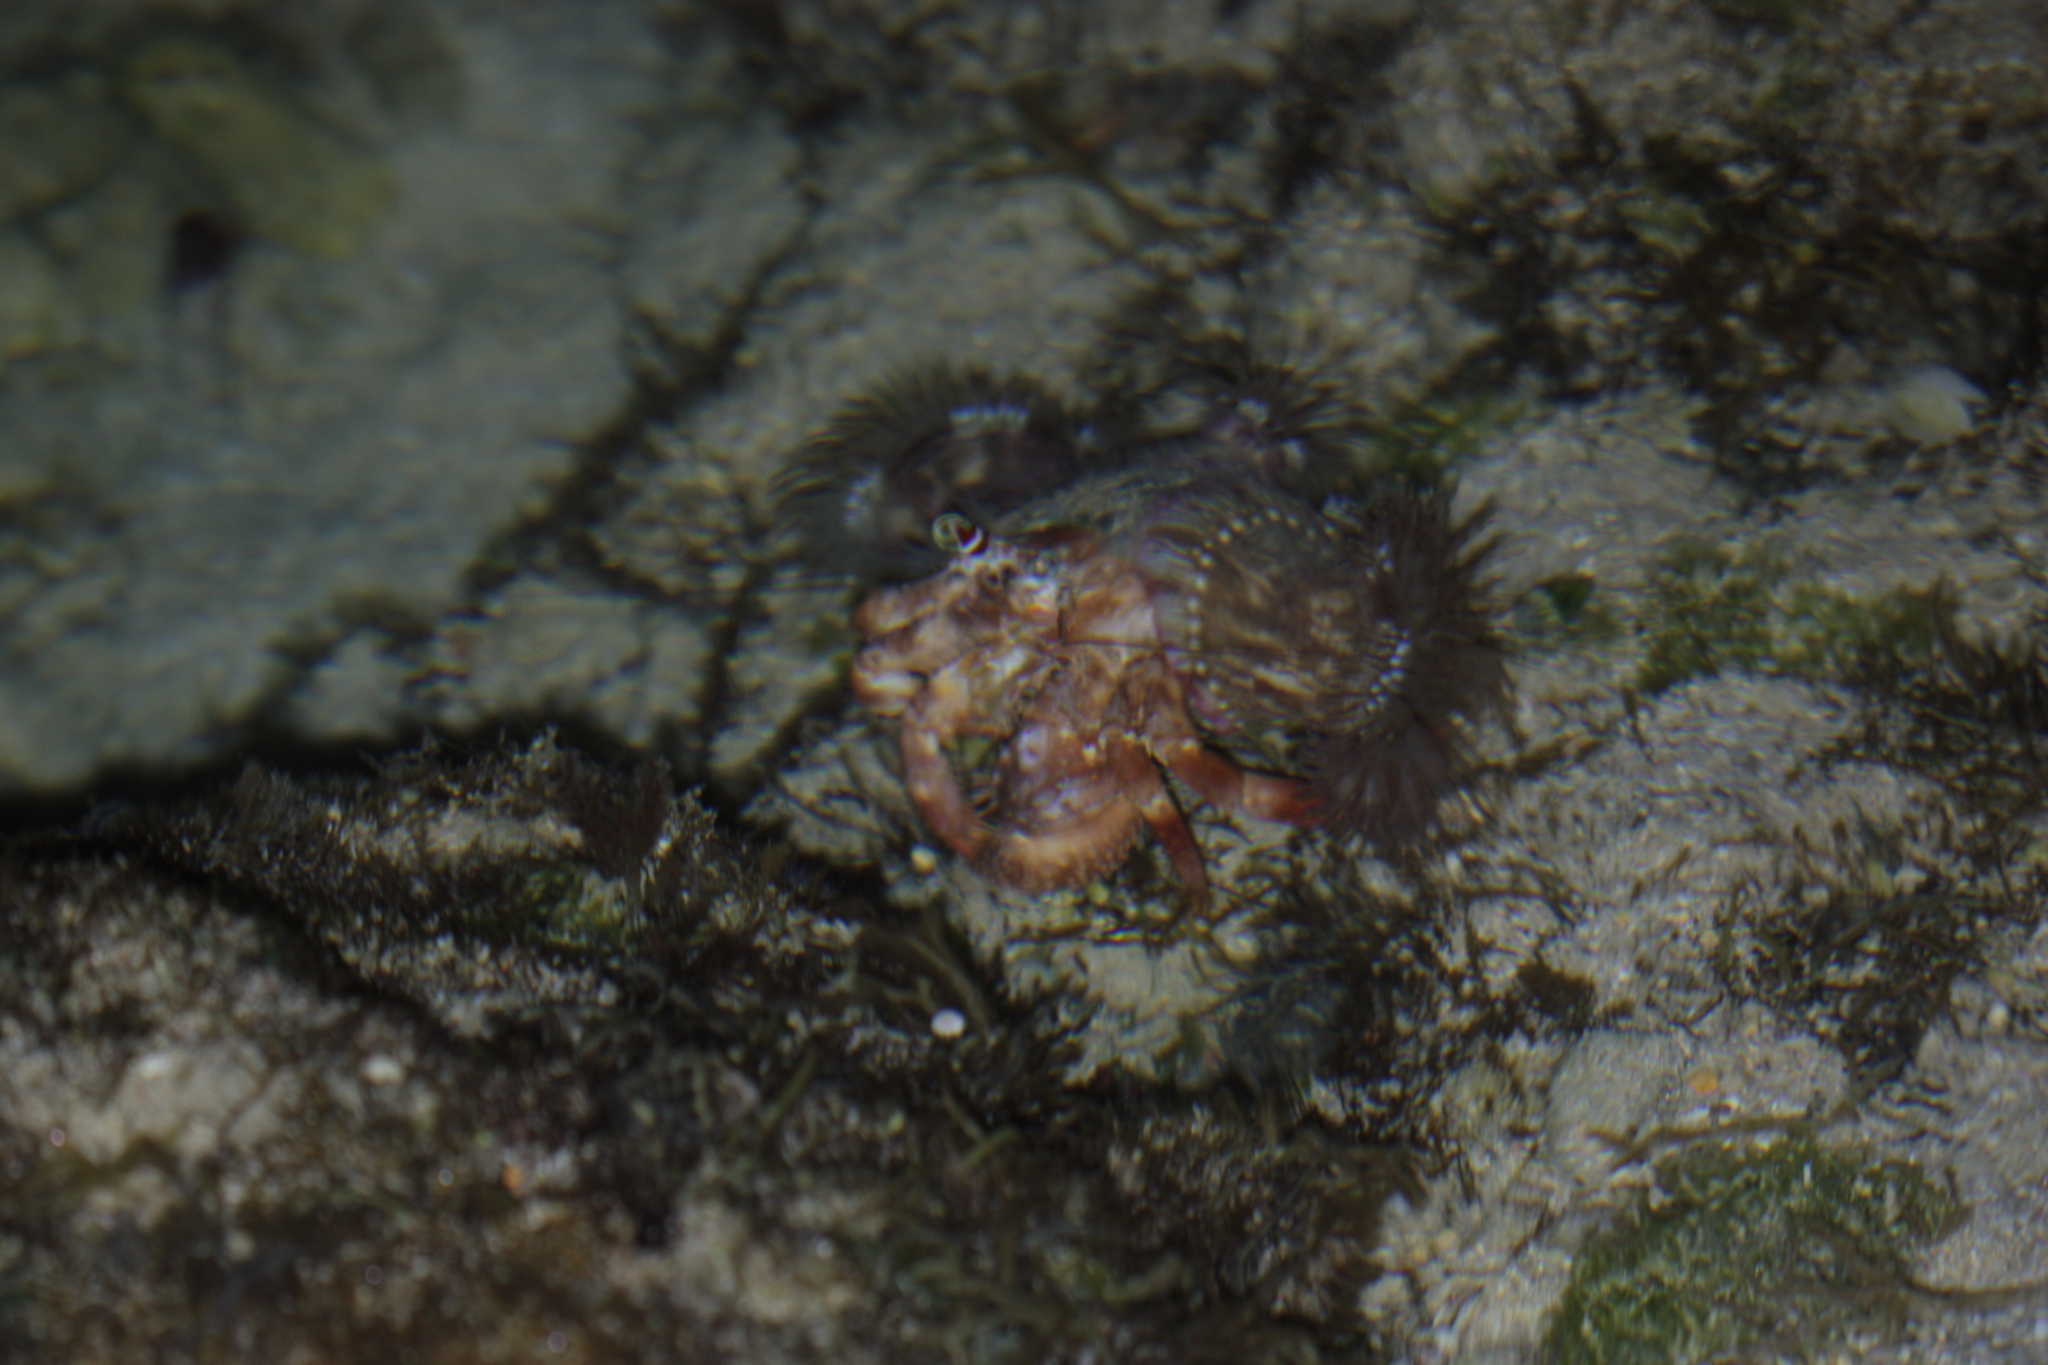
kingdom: Animalia
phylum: Arthropoda
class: Malacostraca
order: Decapoda
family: Diogenidae
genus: Dardanus
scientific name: Dardanus gemmatus
